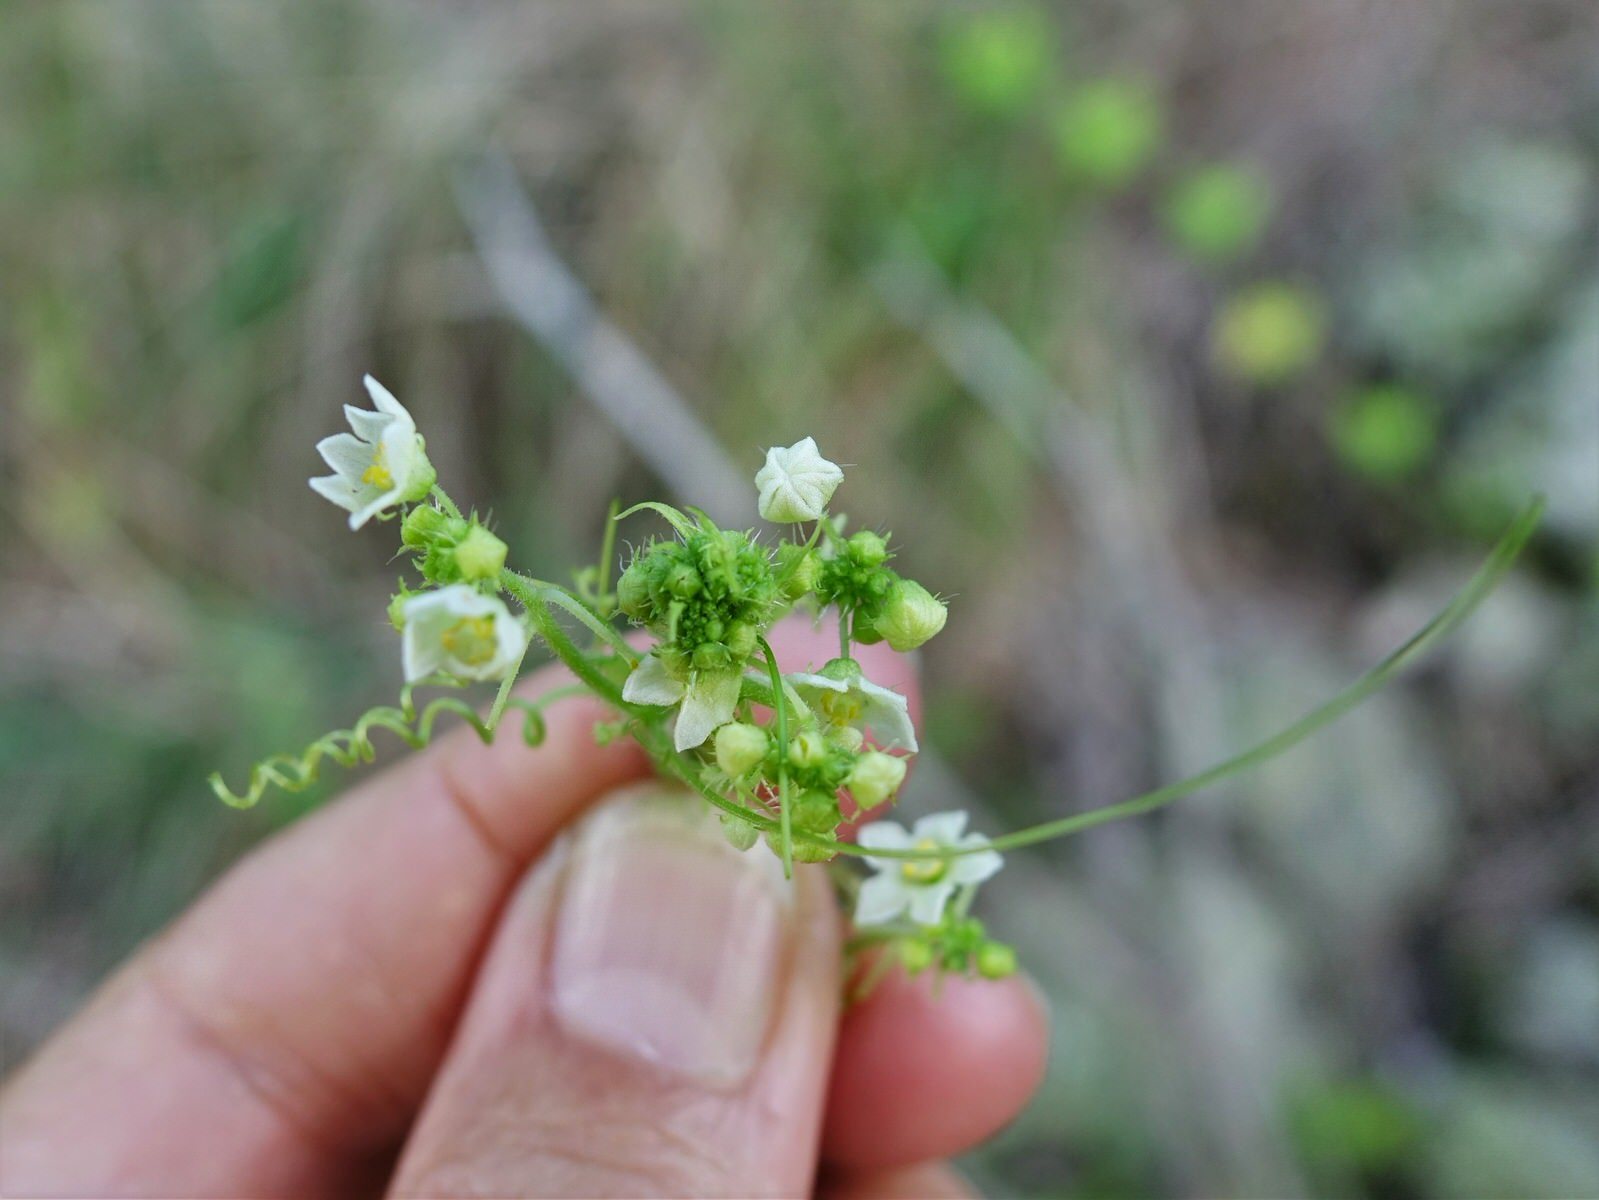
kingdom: Plantae
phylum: Tracheophyta
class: Magnoliopsida
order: Cucurbitales
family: Cucurbitaceae
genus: Sicyos
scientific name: Sicyos australis
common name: Angle-cucumber
